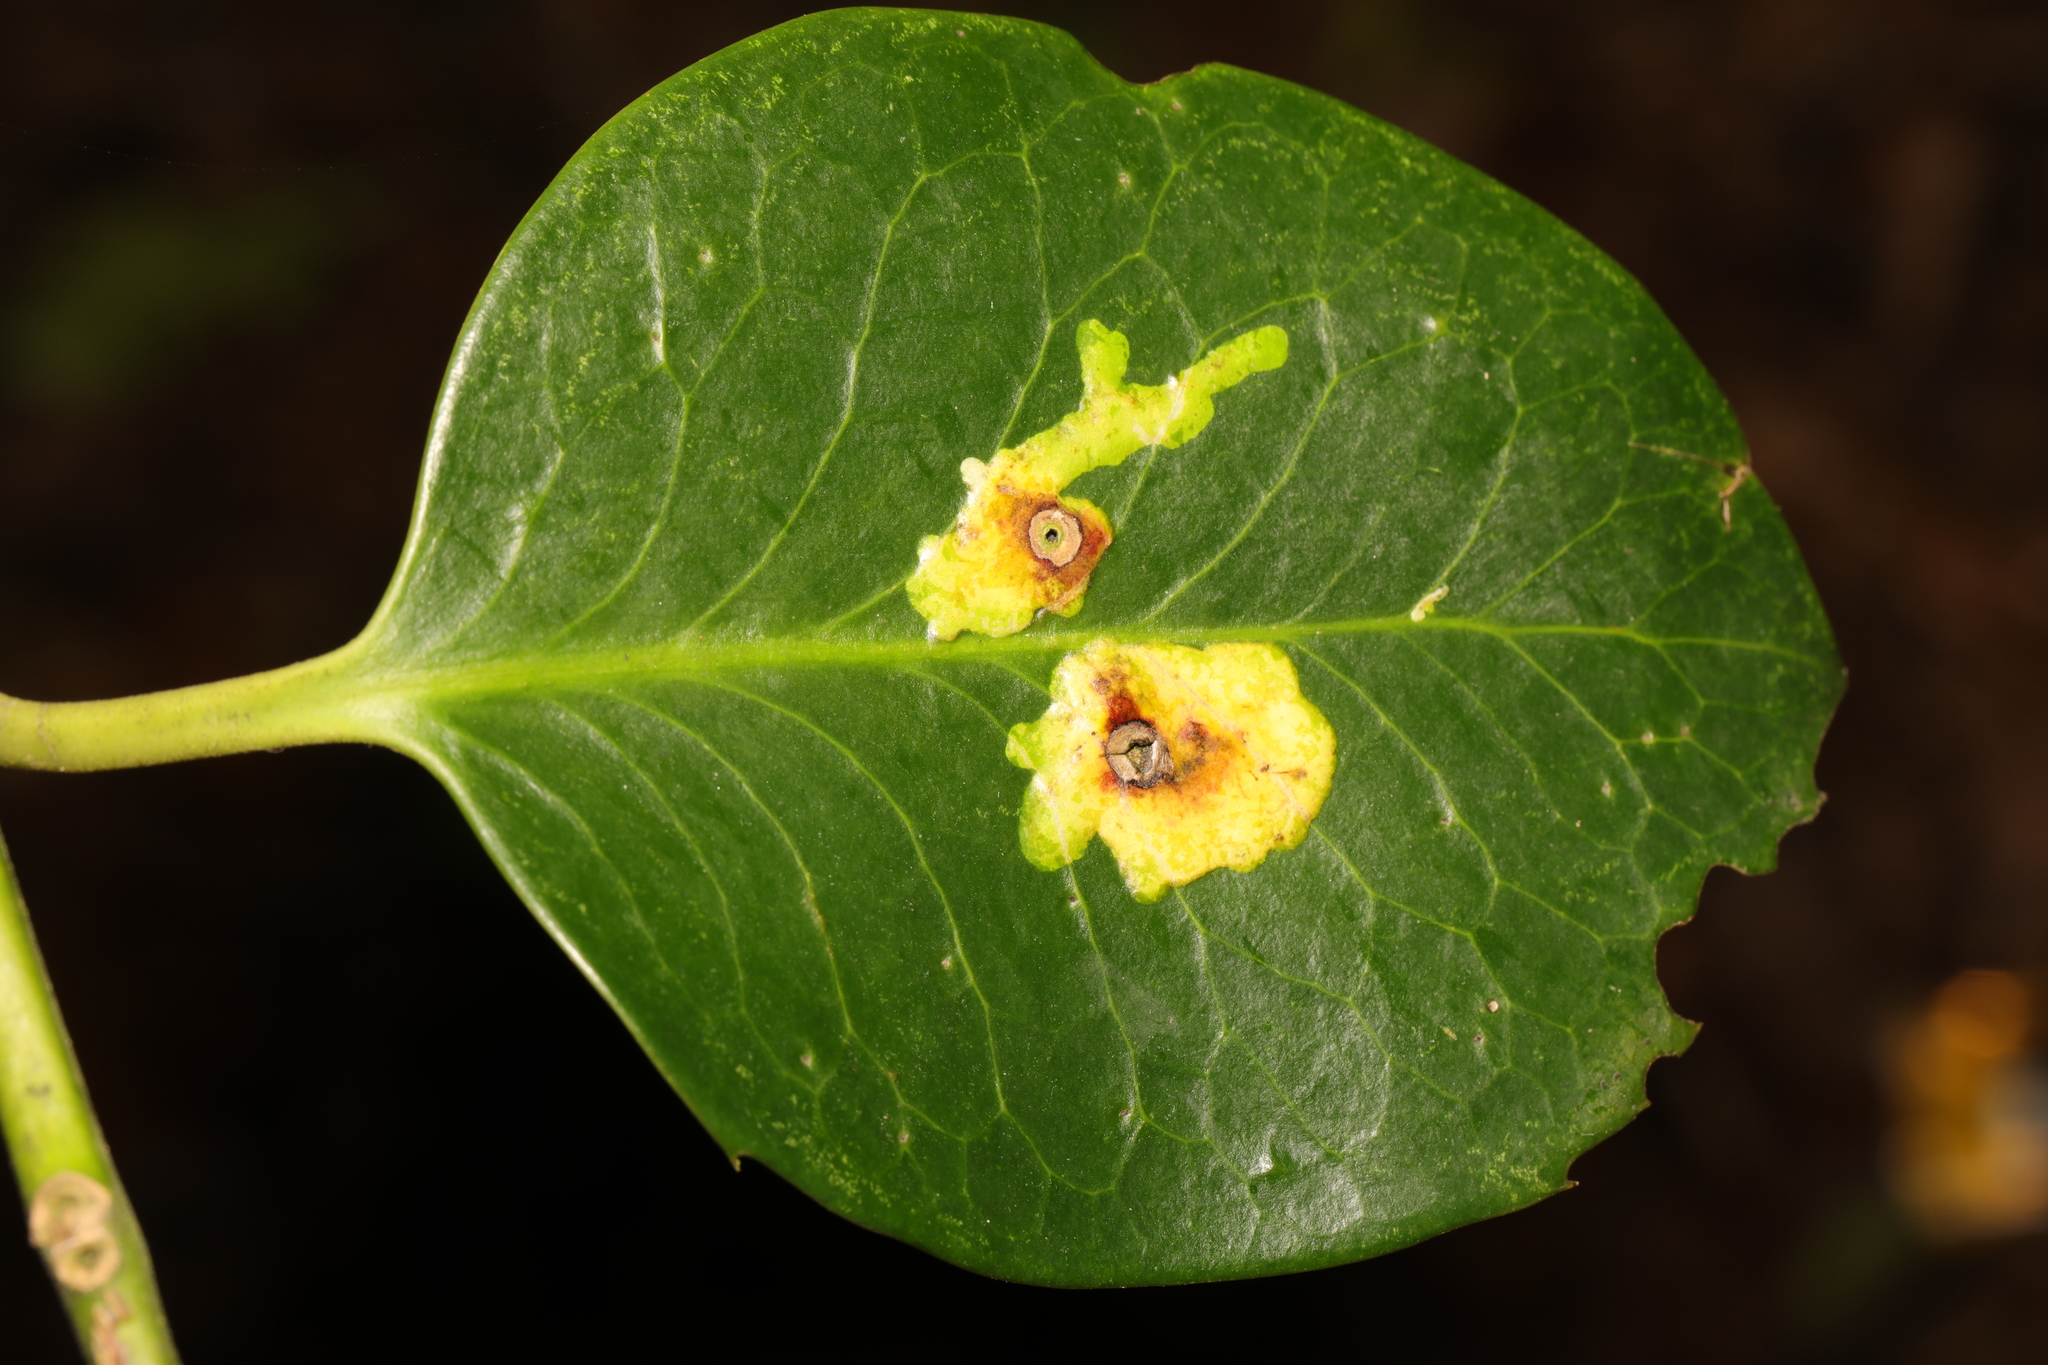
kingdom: Plantae
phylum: Tracheophyta
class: Magnoliopsida
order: Aquifoliales
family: Aquifoliaceae
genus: Ilex
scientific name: Ilex altaclerensis
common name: Highclere holly
